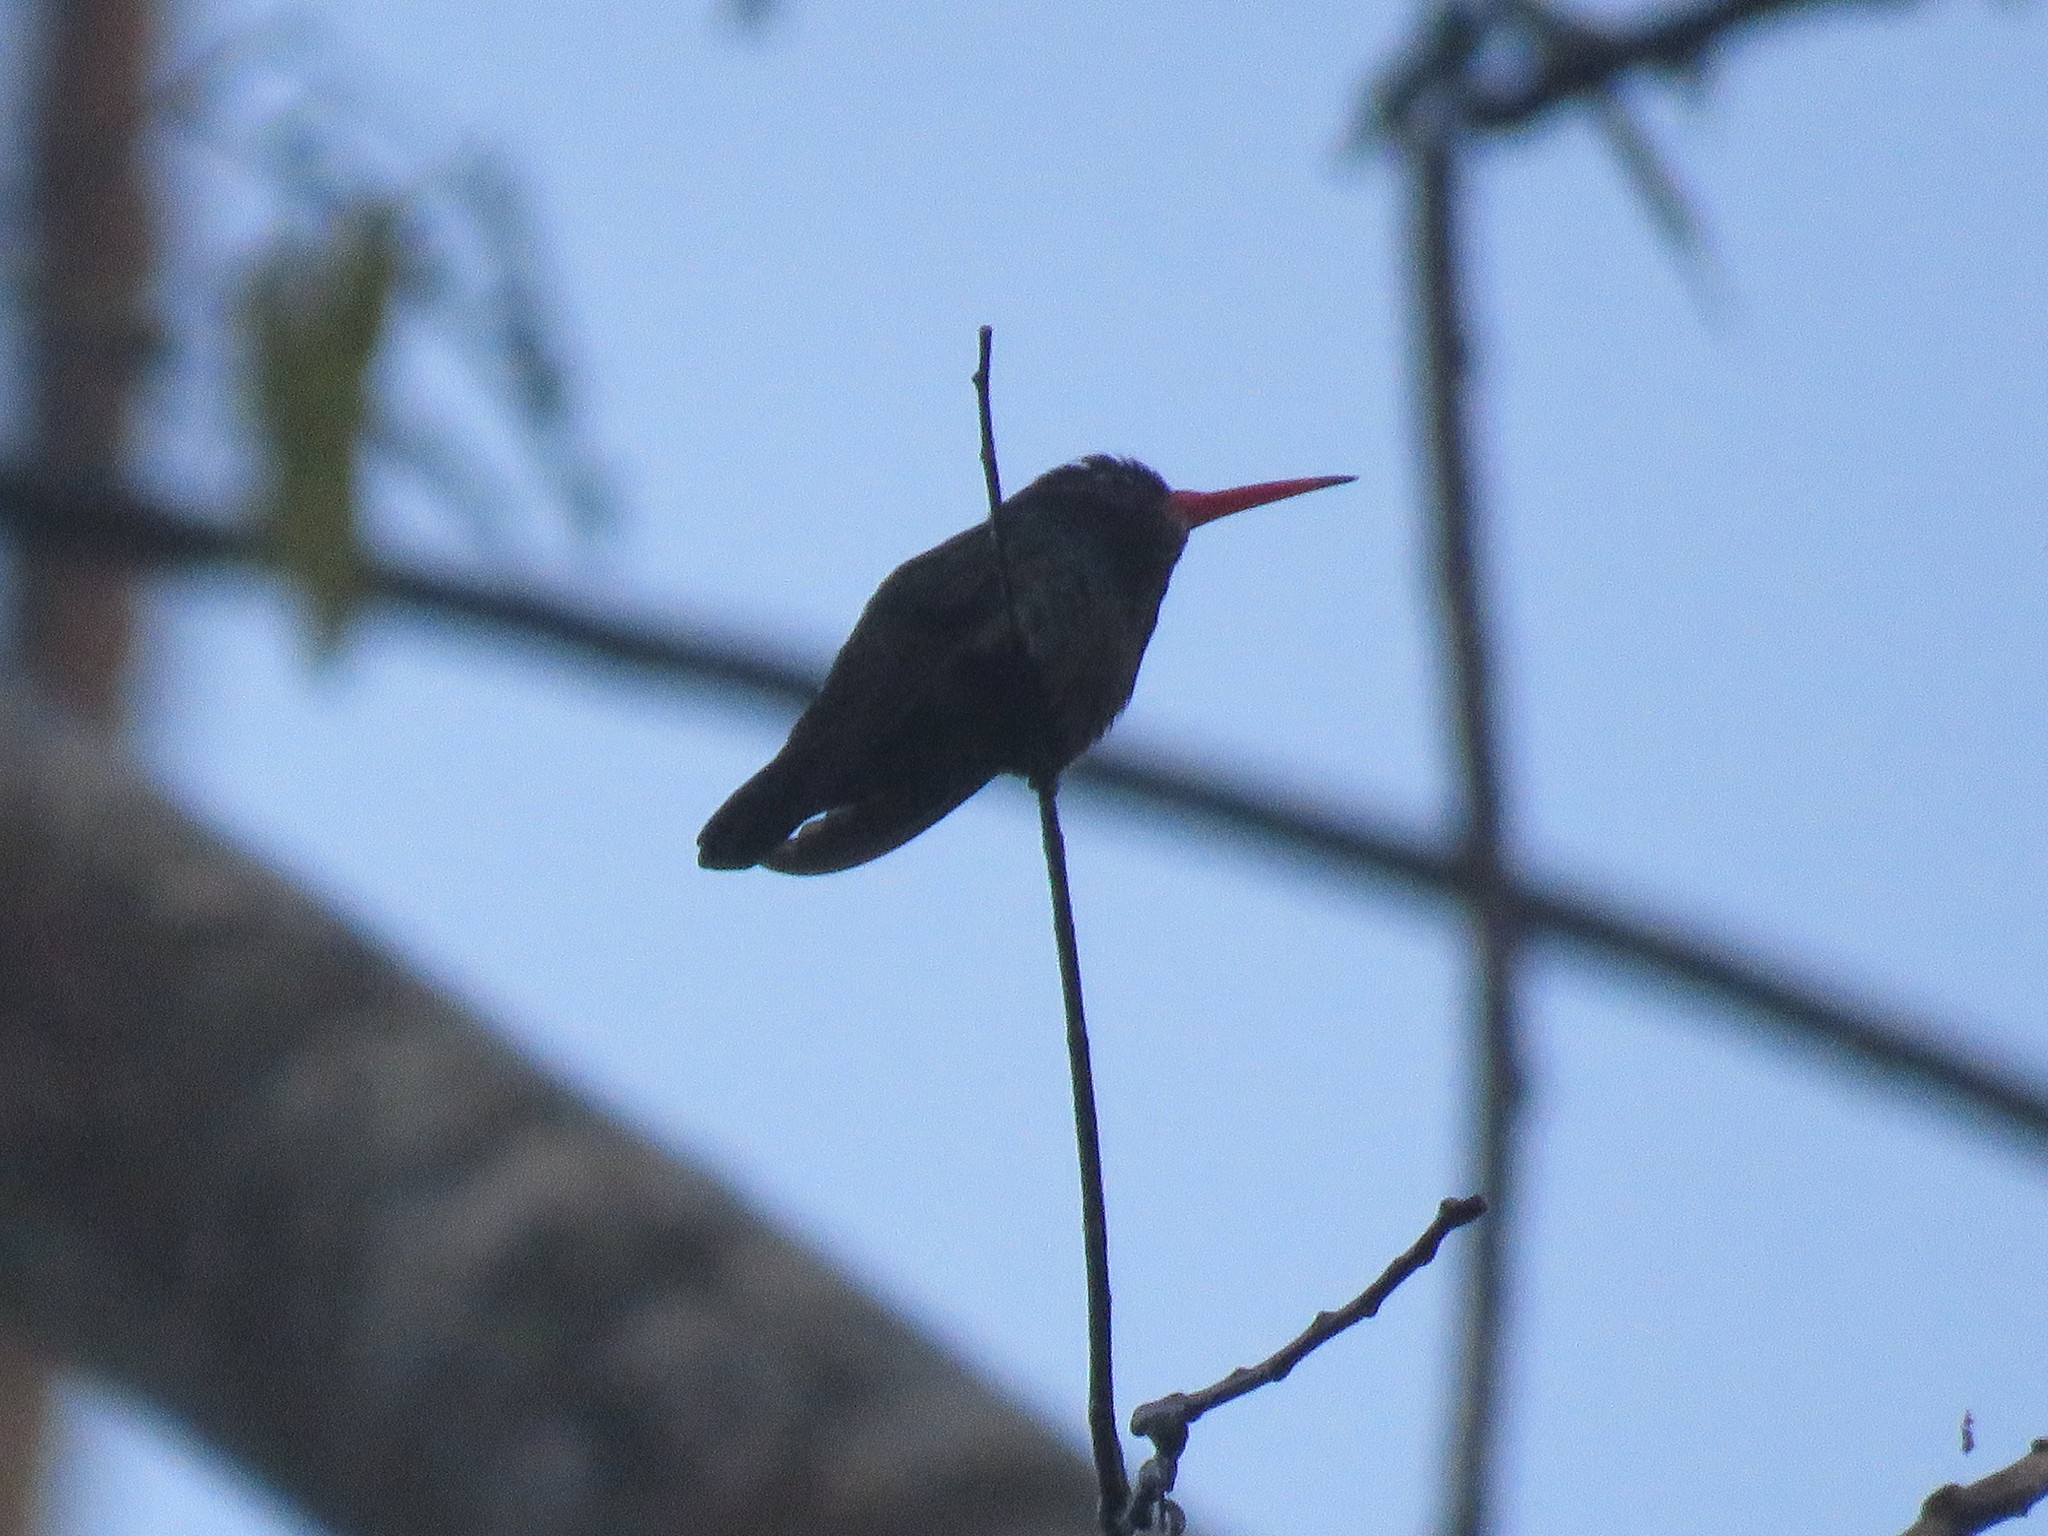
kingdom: Animalia
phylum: Chordata
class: Aves
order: Apodiformes
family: Trochilidae
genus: Chlorestes
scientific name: Chlorestes cyanus
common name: White-chinned sapphire
